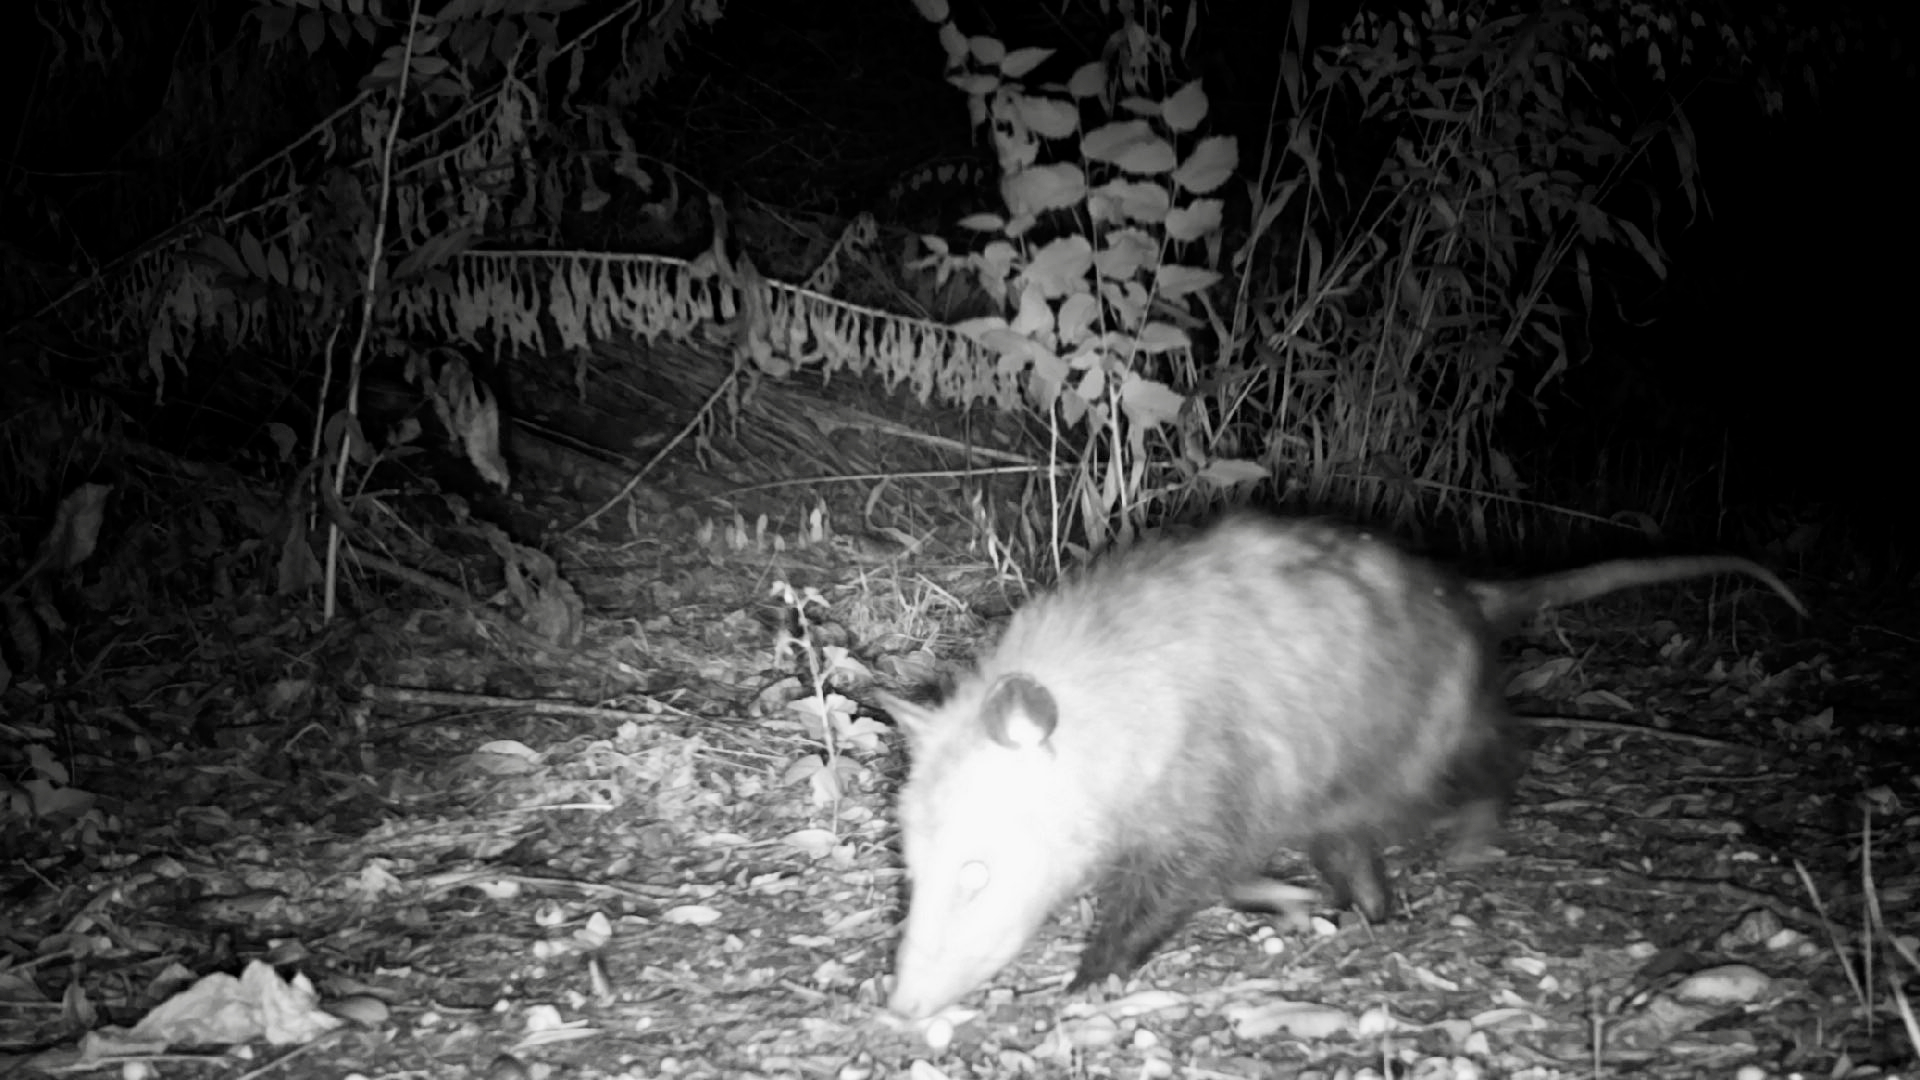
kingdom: Animalia
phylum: Chordata
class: Mammalia
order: Didelphimorphia
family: Didelphidae
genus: Didelphis
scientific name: Didelphis virginiana
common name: Virginia opossum
